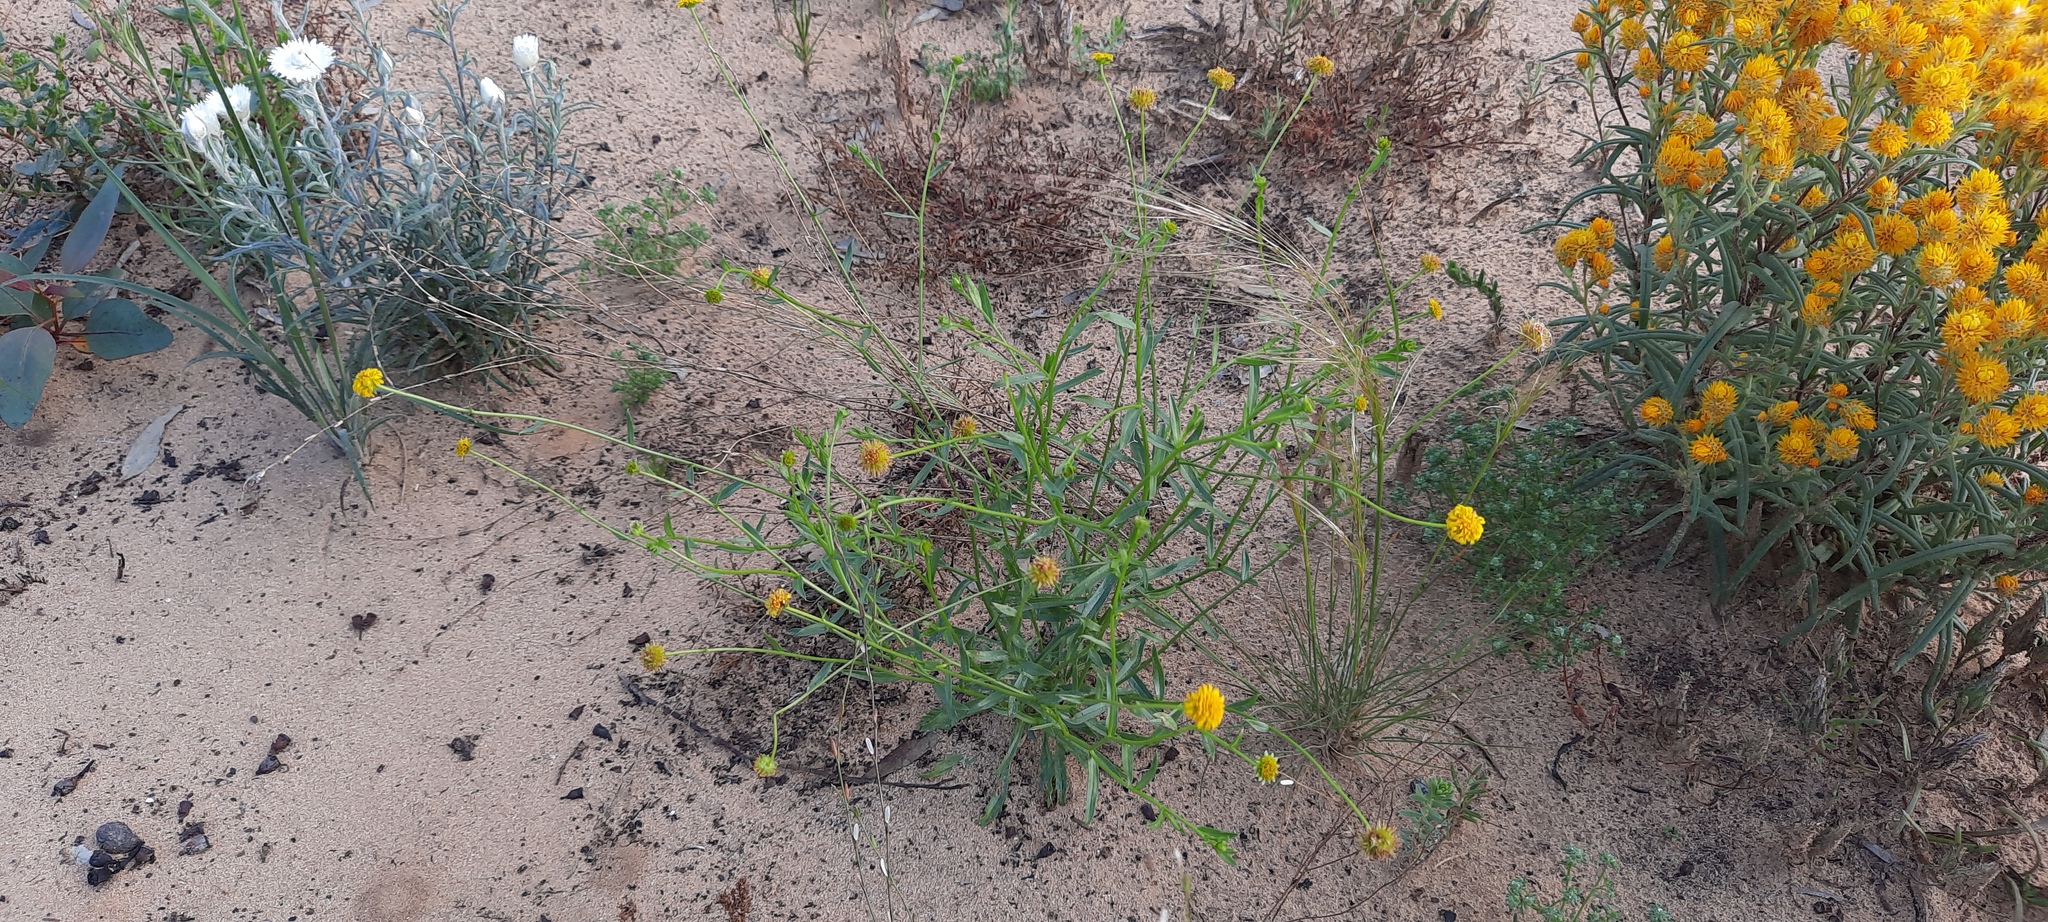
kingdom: Plantae
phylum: Tracheophyta
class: Magnoliopsida
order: Asterales
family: Asteraceae
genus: Calotis
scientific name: Calotis erinacea
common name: Tangled bur daisy
